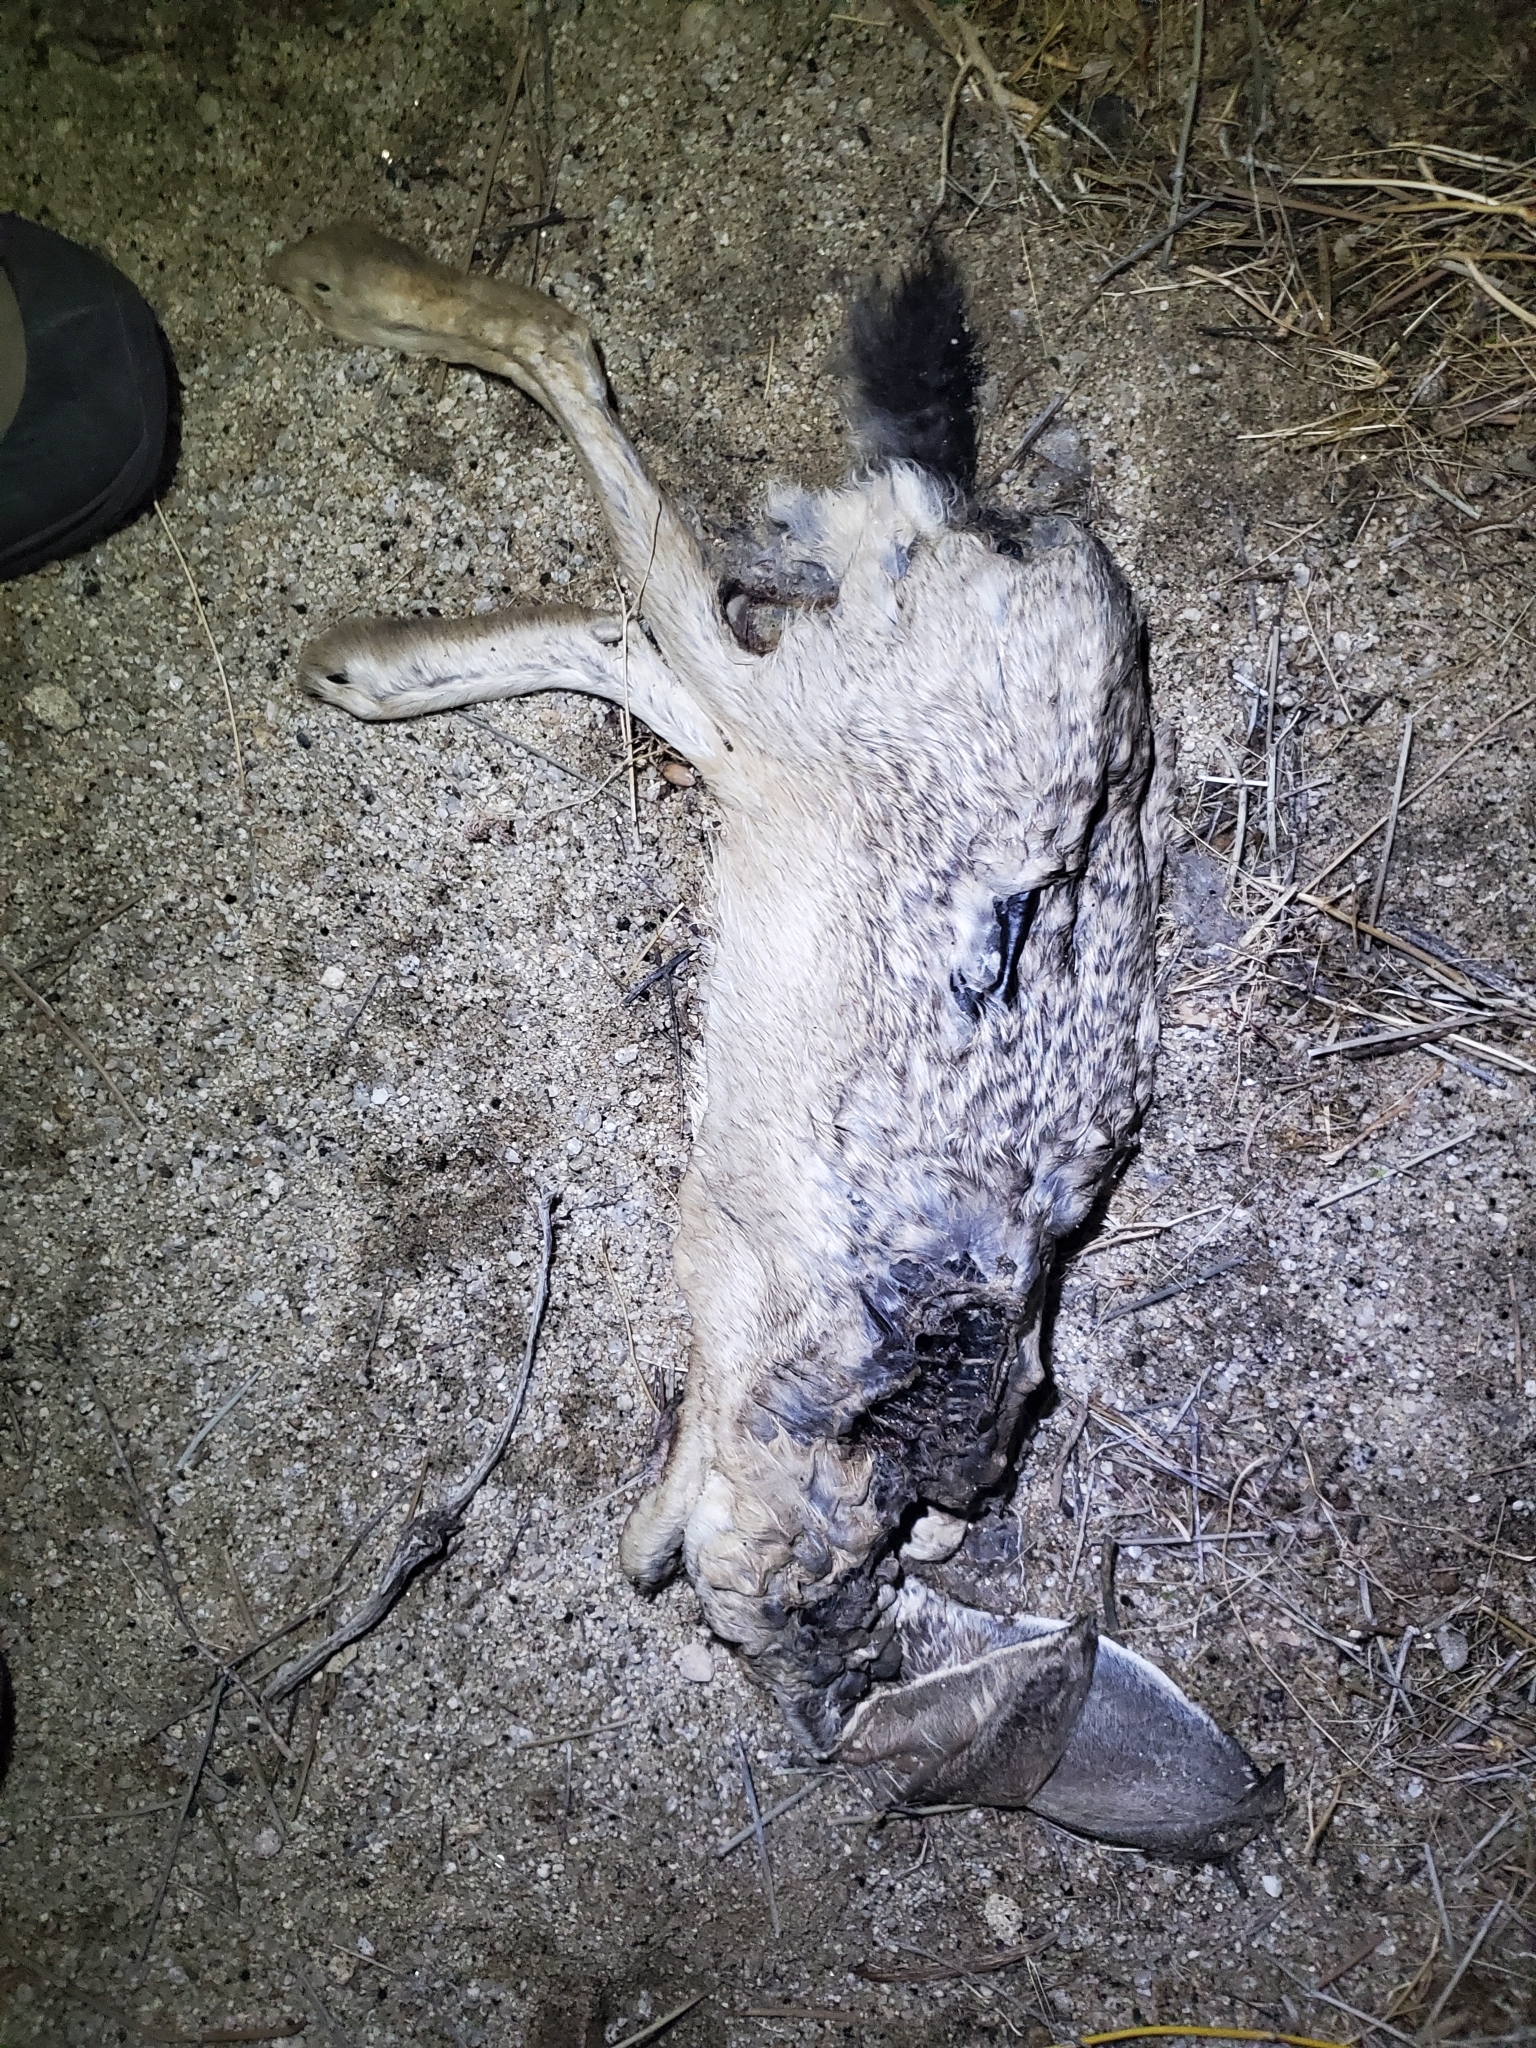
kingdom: Animalia
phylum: Chordata
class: Mammalia
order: Lagomorpha
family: Leporidae
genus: Lepus
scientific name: Lepus californicus
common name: Black-tailed jackrabbit
